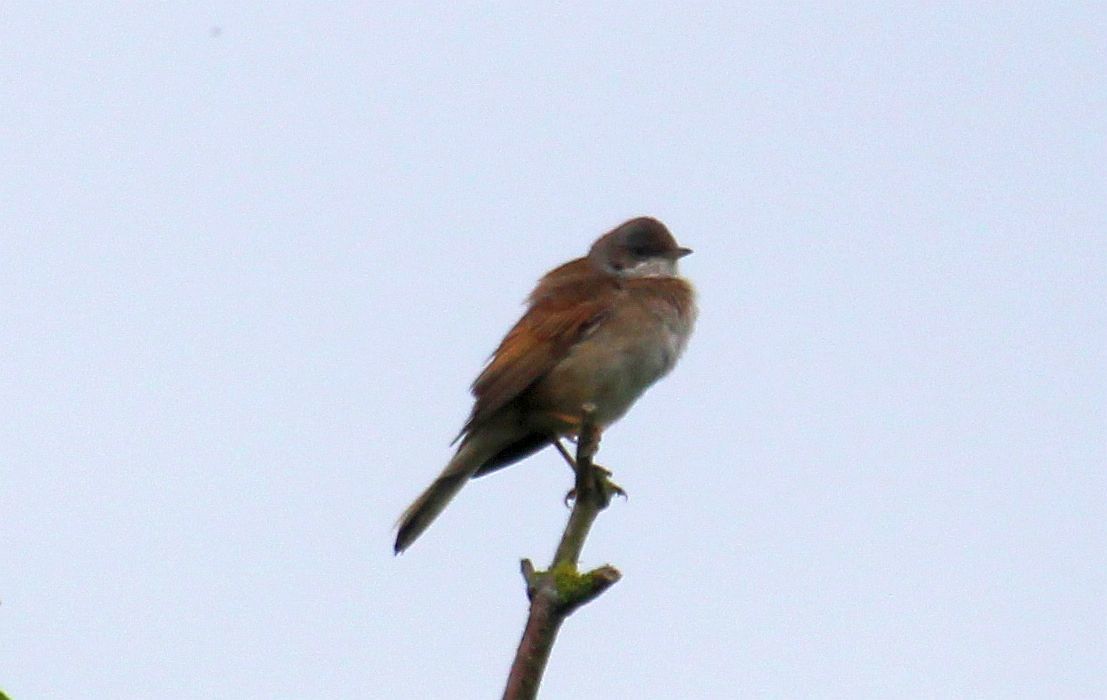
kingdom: Animalia
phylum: Chordata
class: Aves
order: Passeriformes
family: Sylviidae
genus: Sylvia
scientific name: Sylvia communis
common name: Common whitethroat
